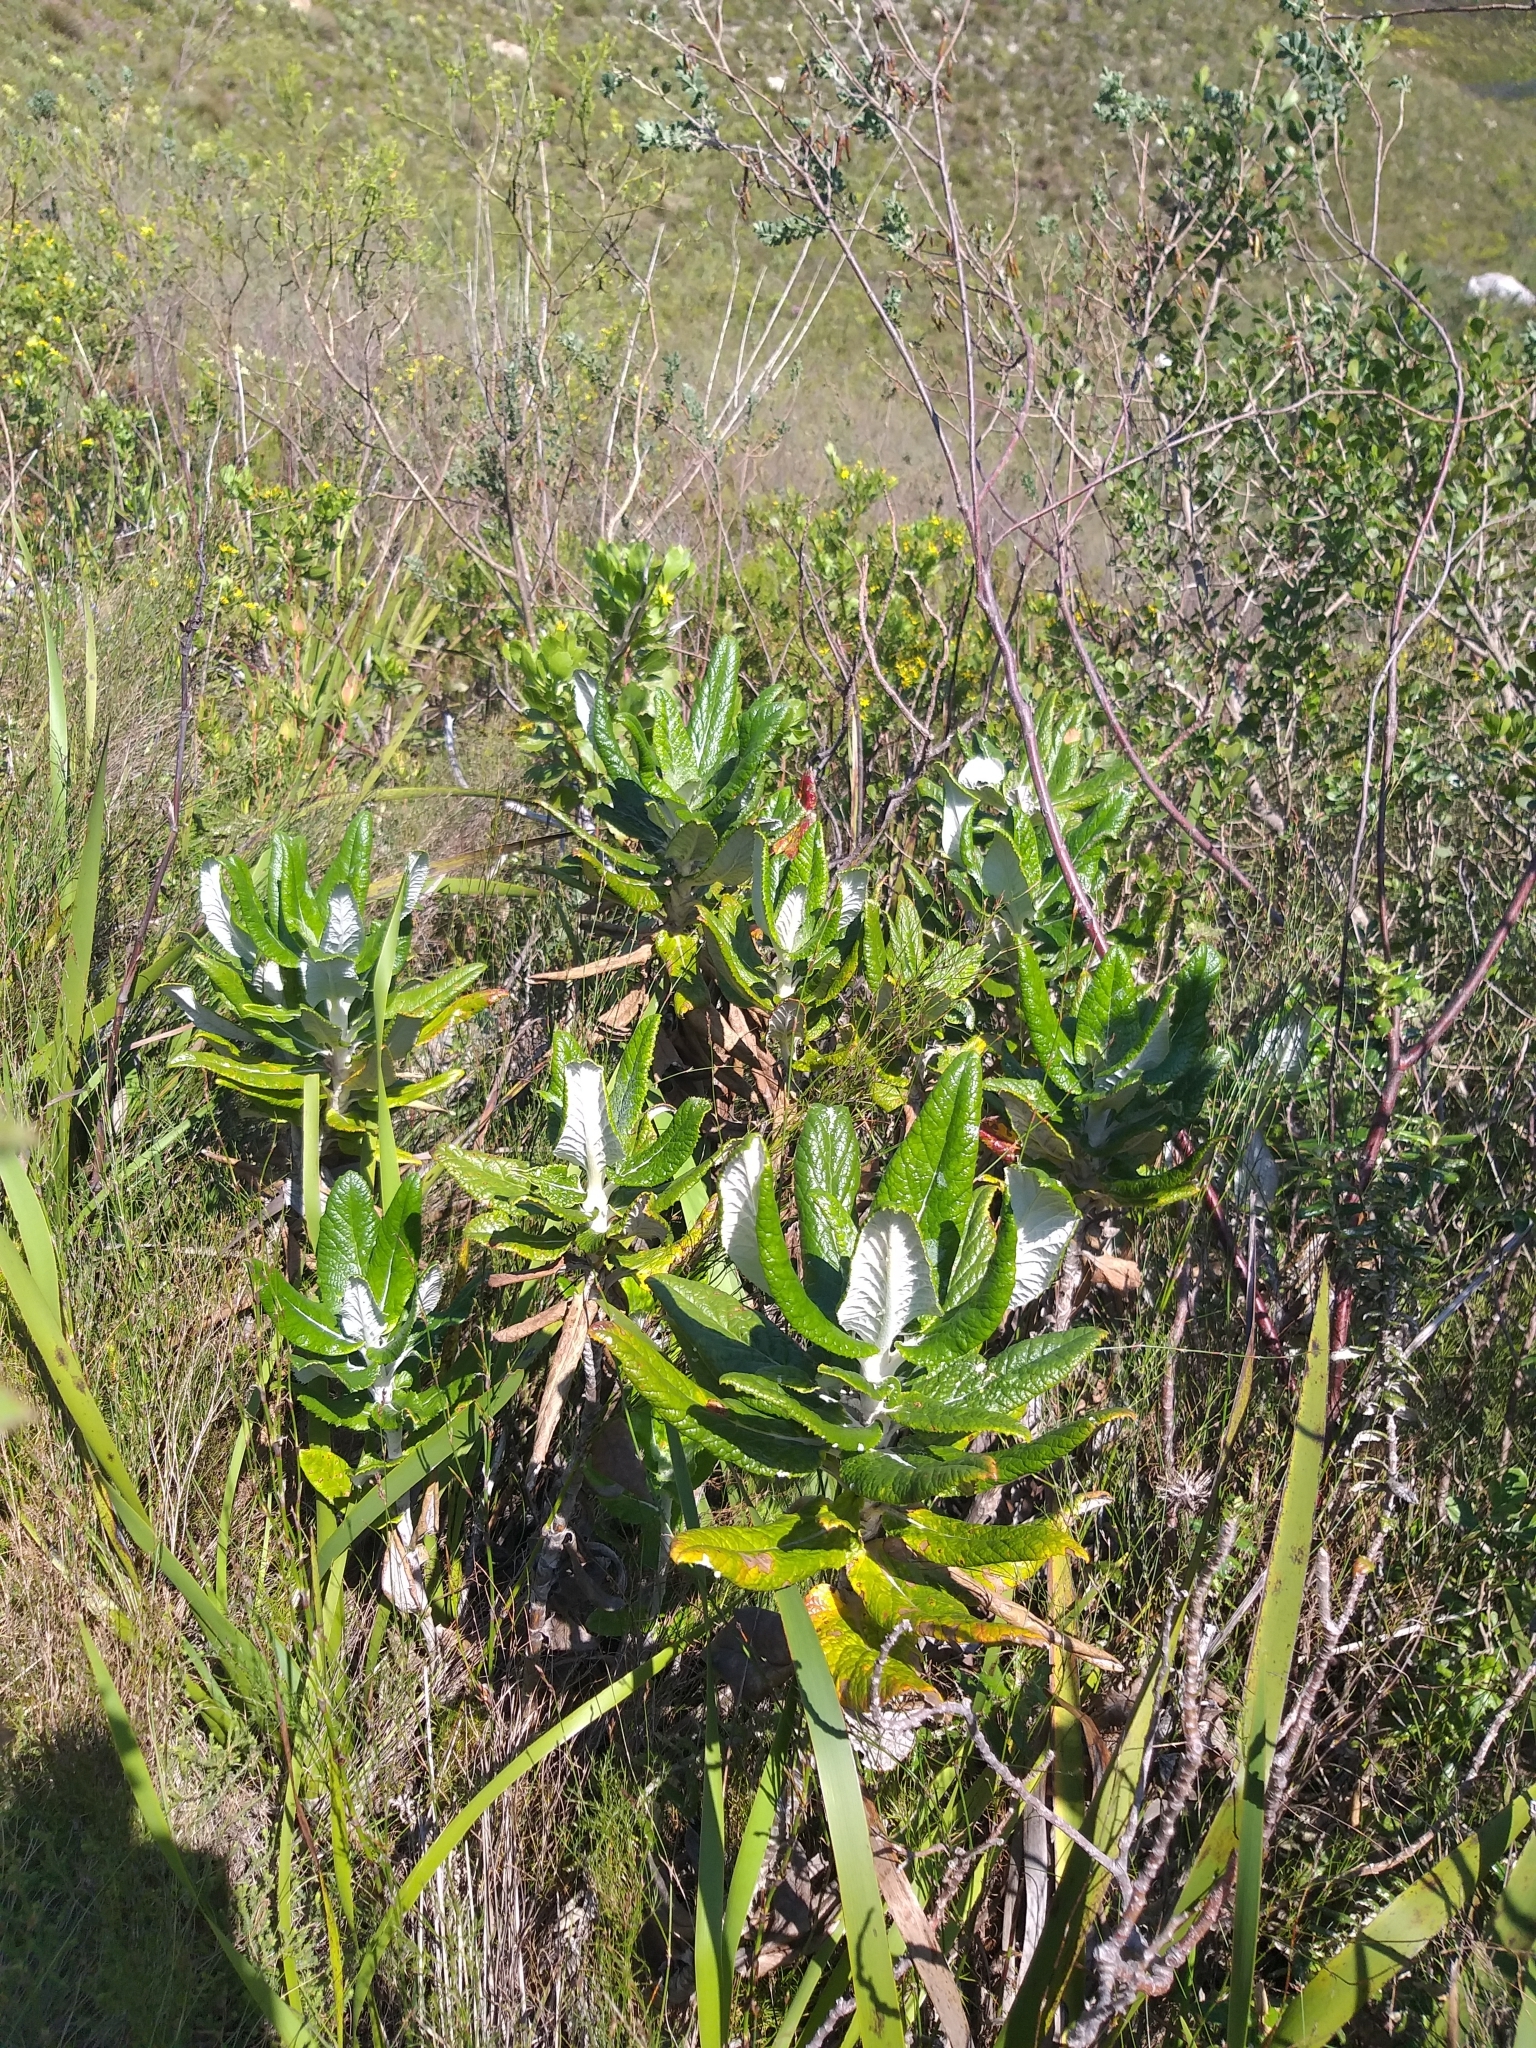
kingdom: Plantae
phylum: Tracheophyta
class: Magnoliopsida
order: Apiales
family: Apiaceae
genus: Hermas
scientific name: Hermas villosa
